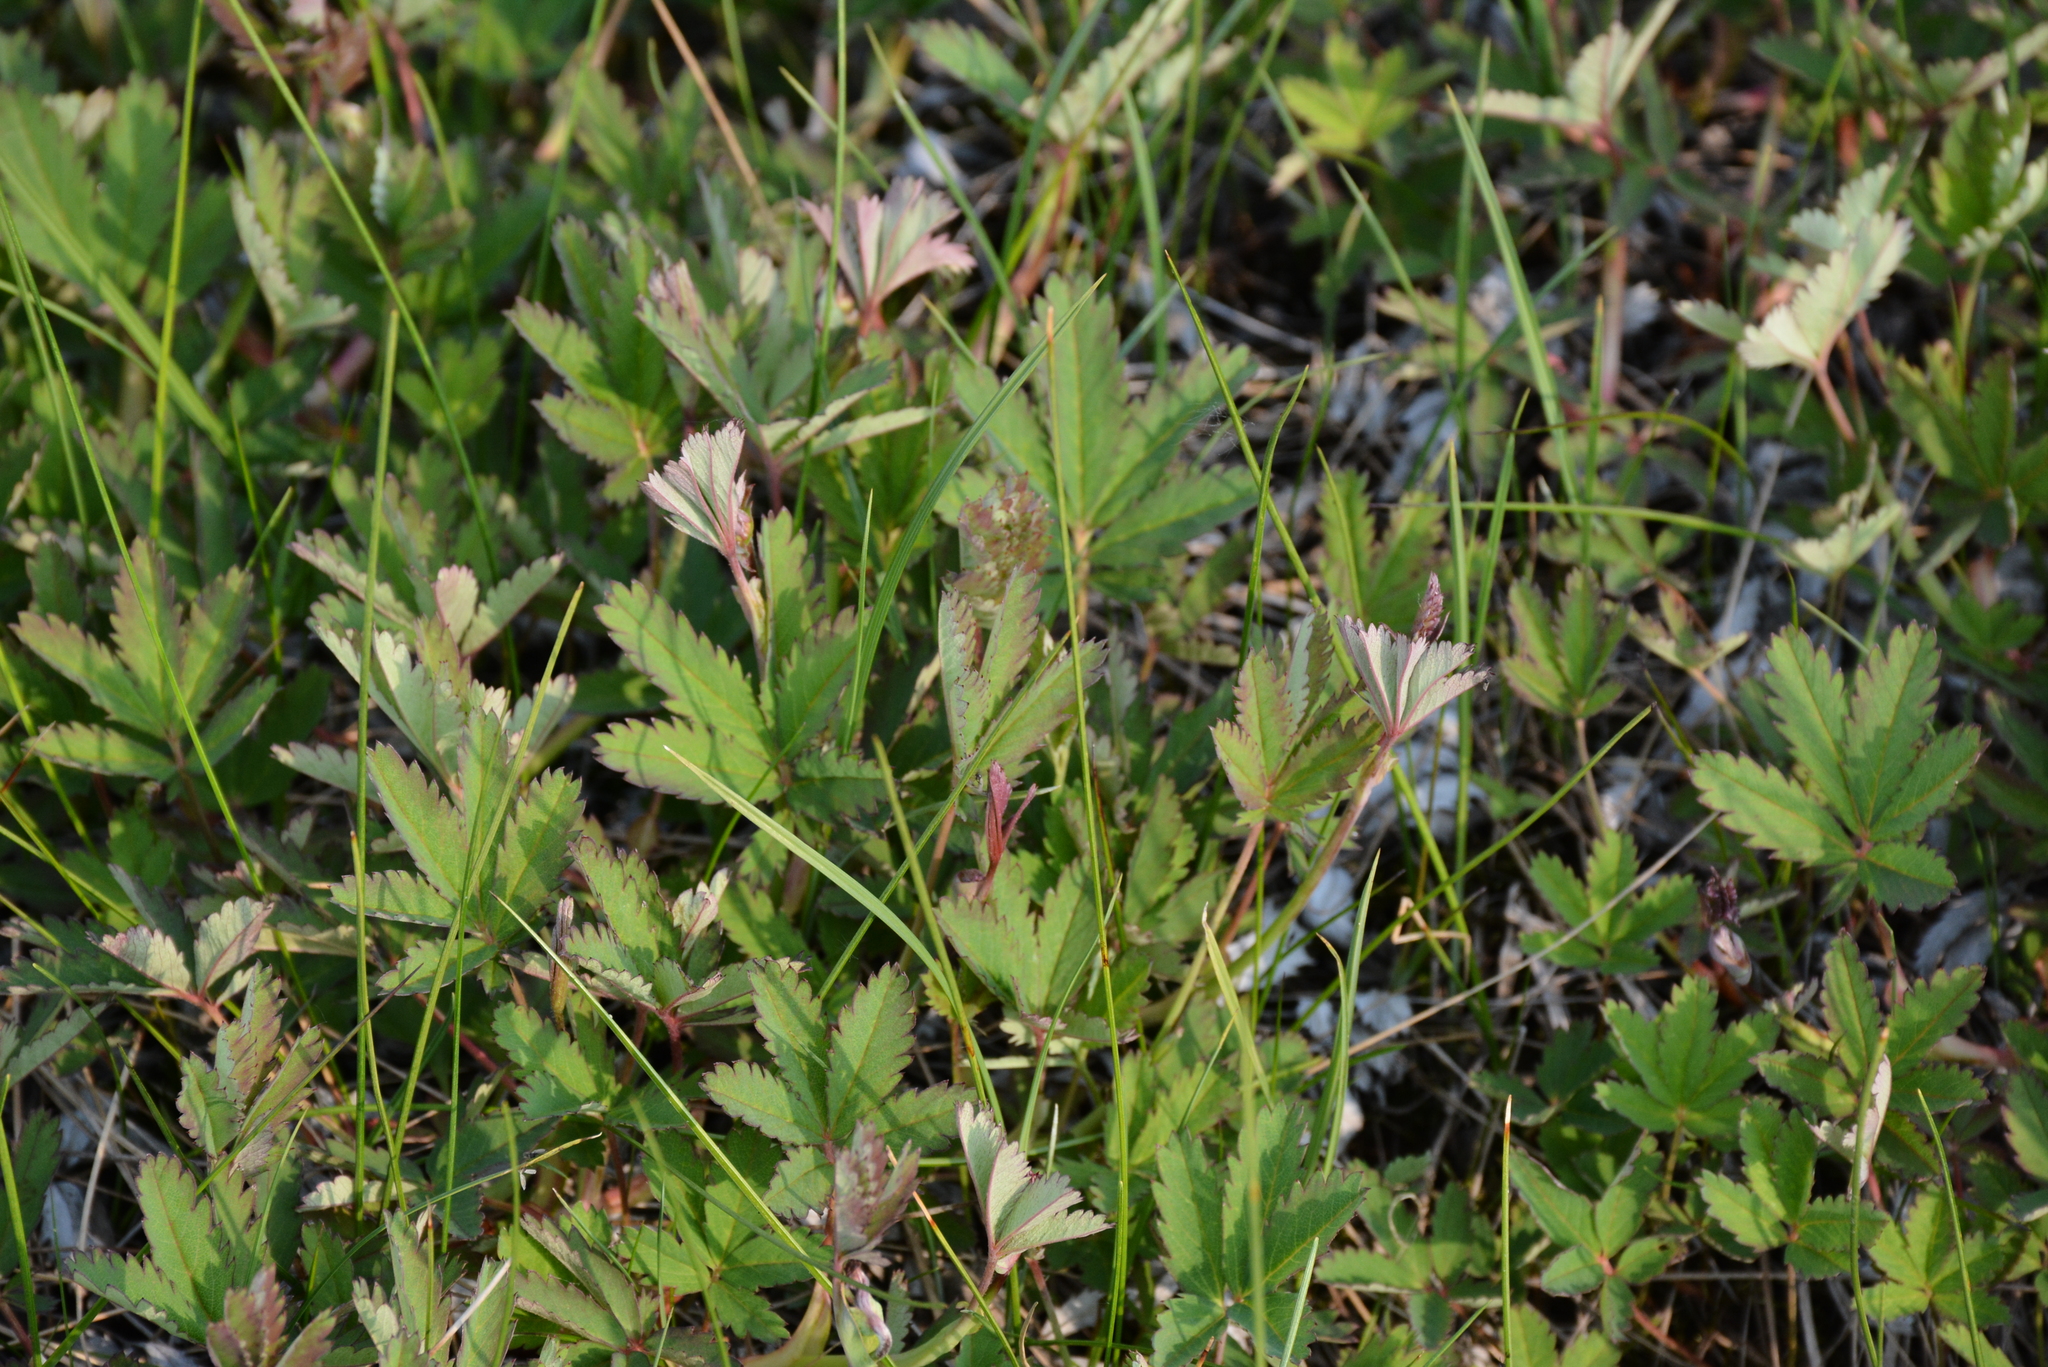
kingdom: Plantae
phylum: Tracheophyta
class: Magnoliopsida
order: Rosales
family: Rosaceae
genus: Comarum
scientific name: Comarum palustre
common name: Marsh cinquefoil
